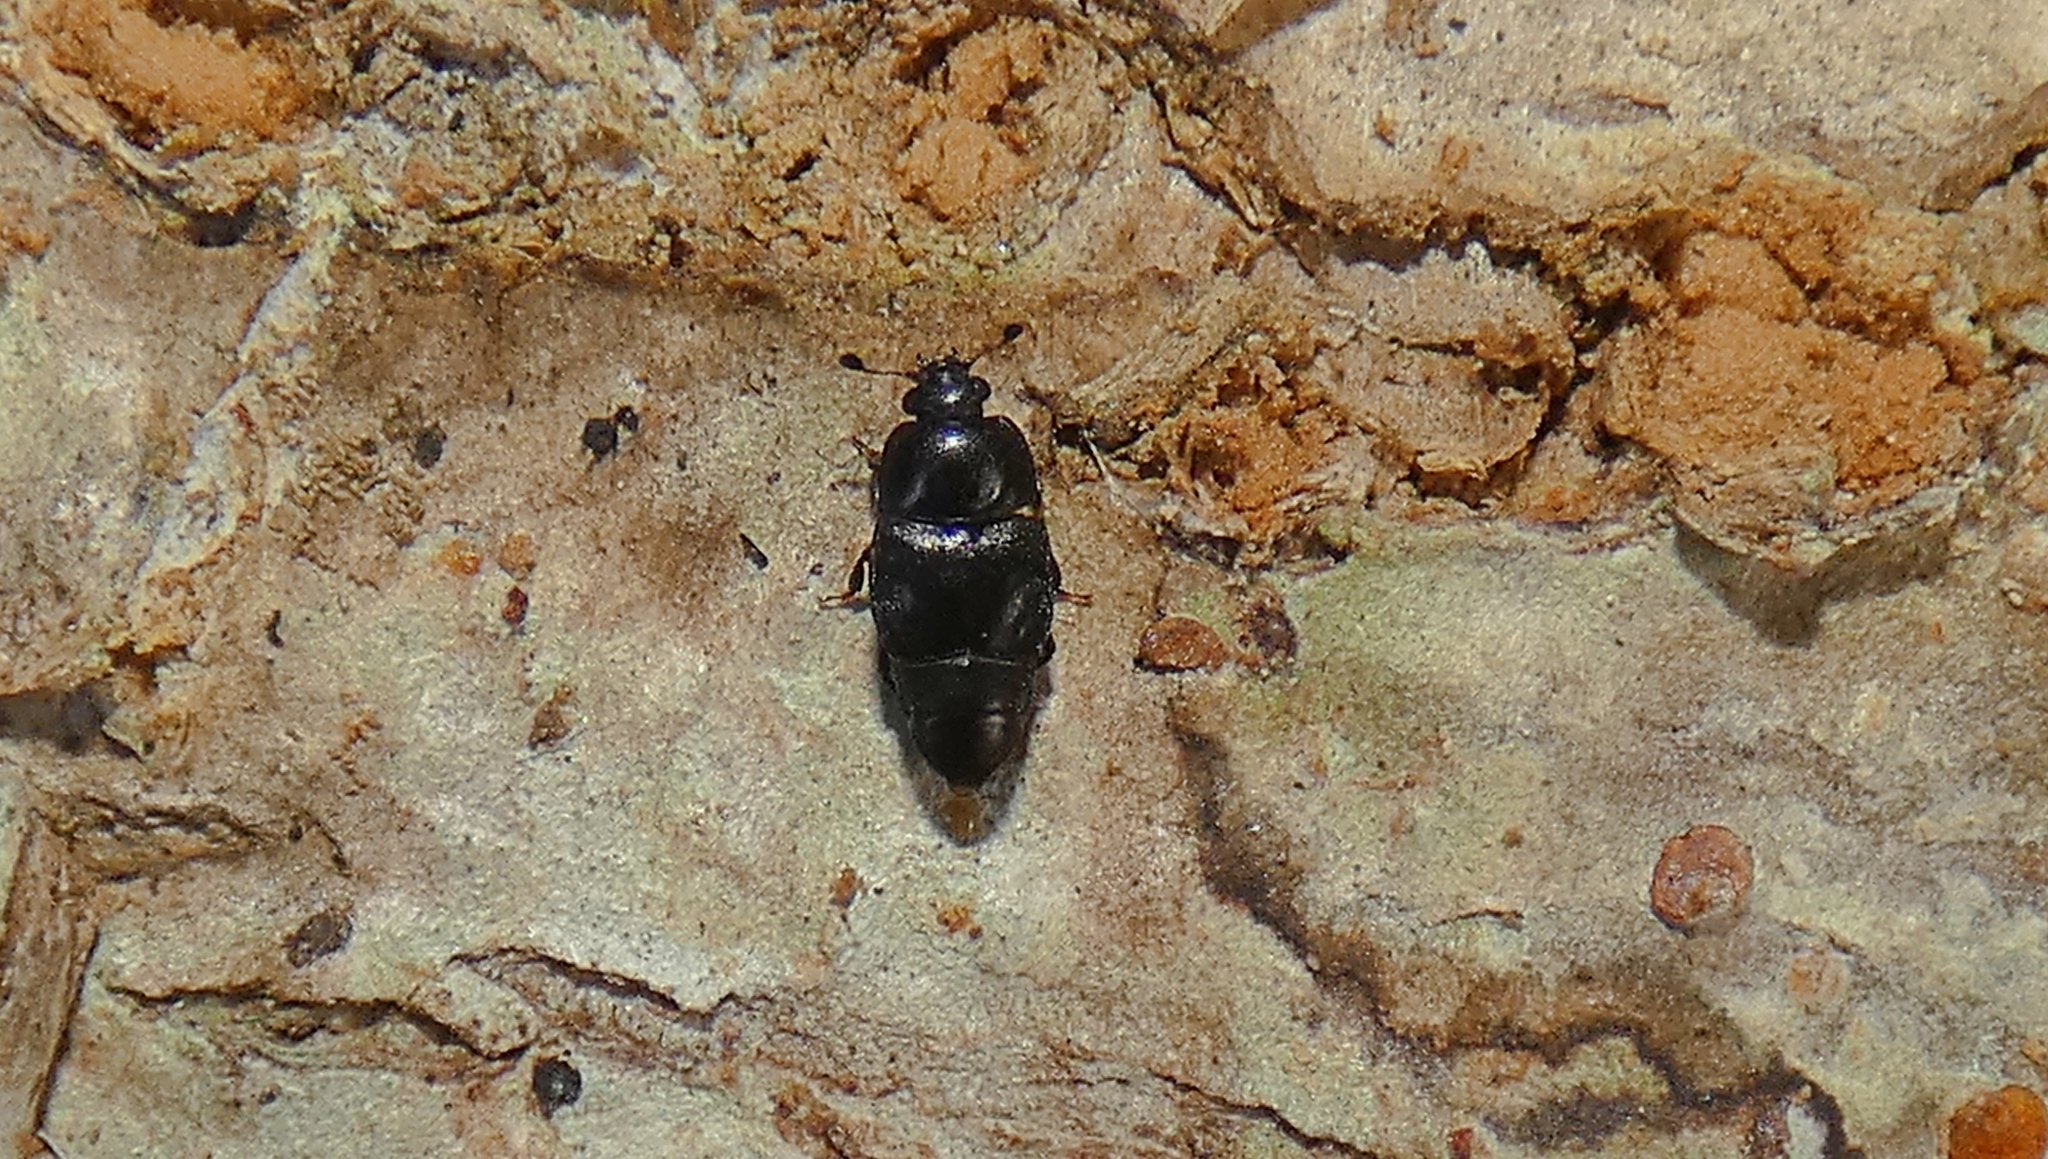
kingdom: Animalia
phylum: Arthropoda
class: Insecta
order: Coleoptera
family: Nitidulidae
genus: Urophorus
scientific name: Urophorus humeralis
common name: Sap beetle
